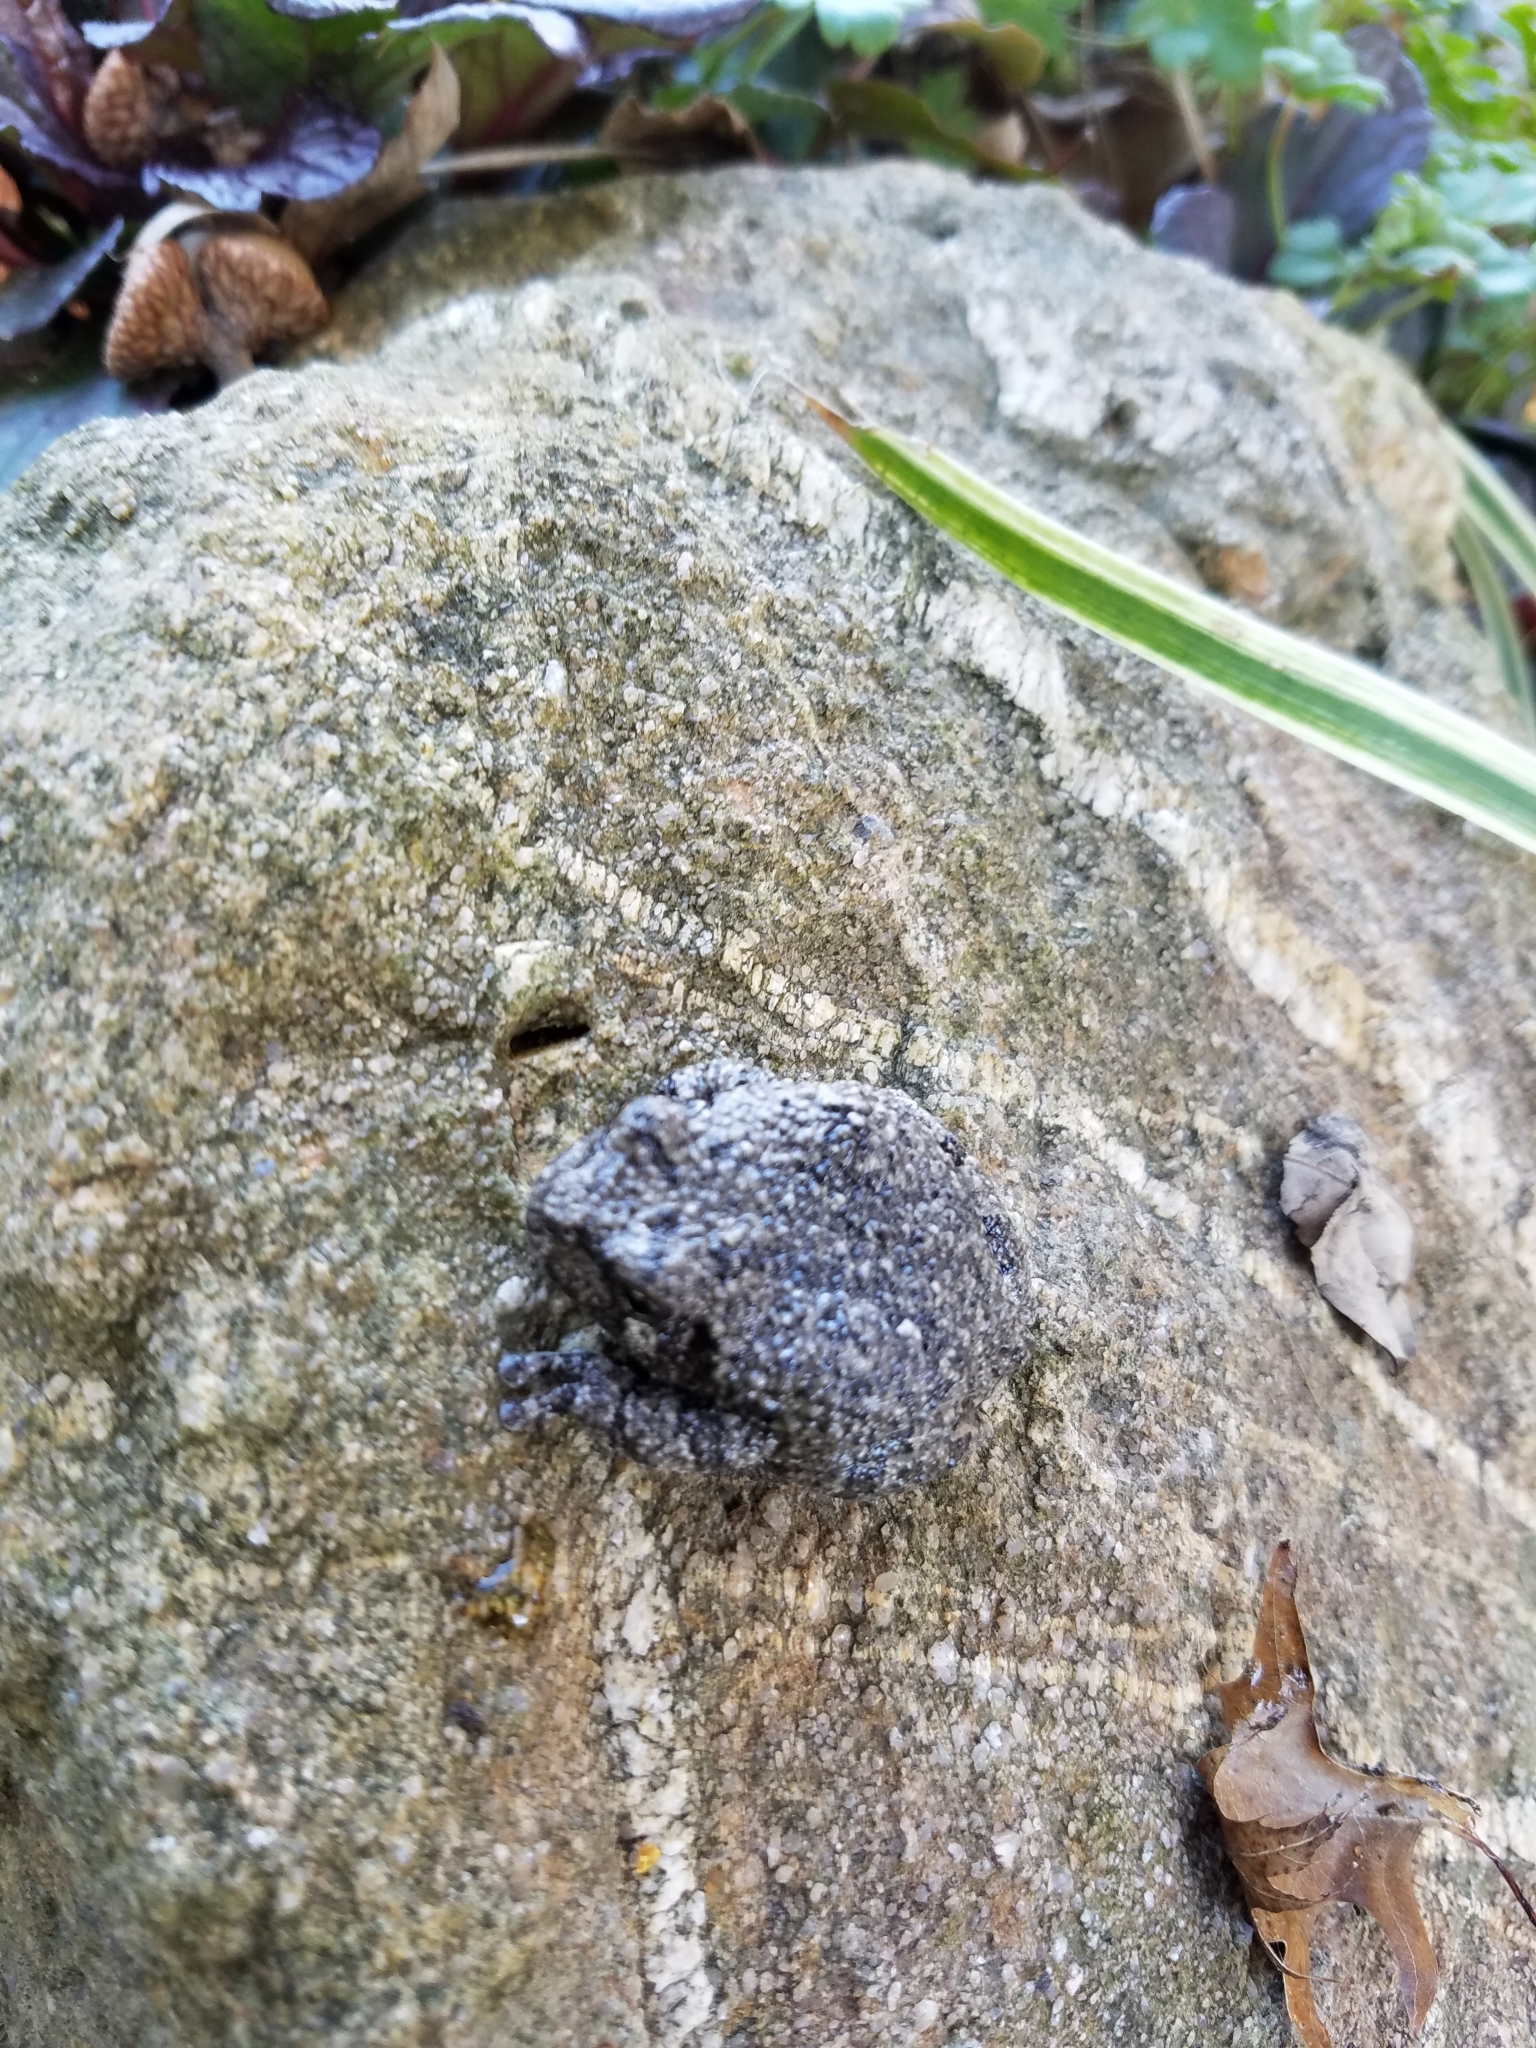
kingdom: Animalia
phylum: Chordata
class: Amphibia
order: Anura
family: Hylidae
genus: Hyla
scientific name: Hyla
